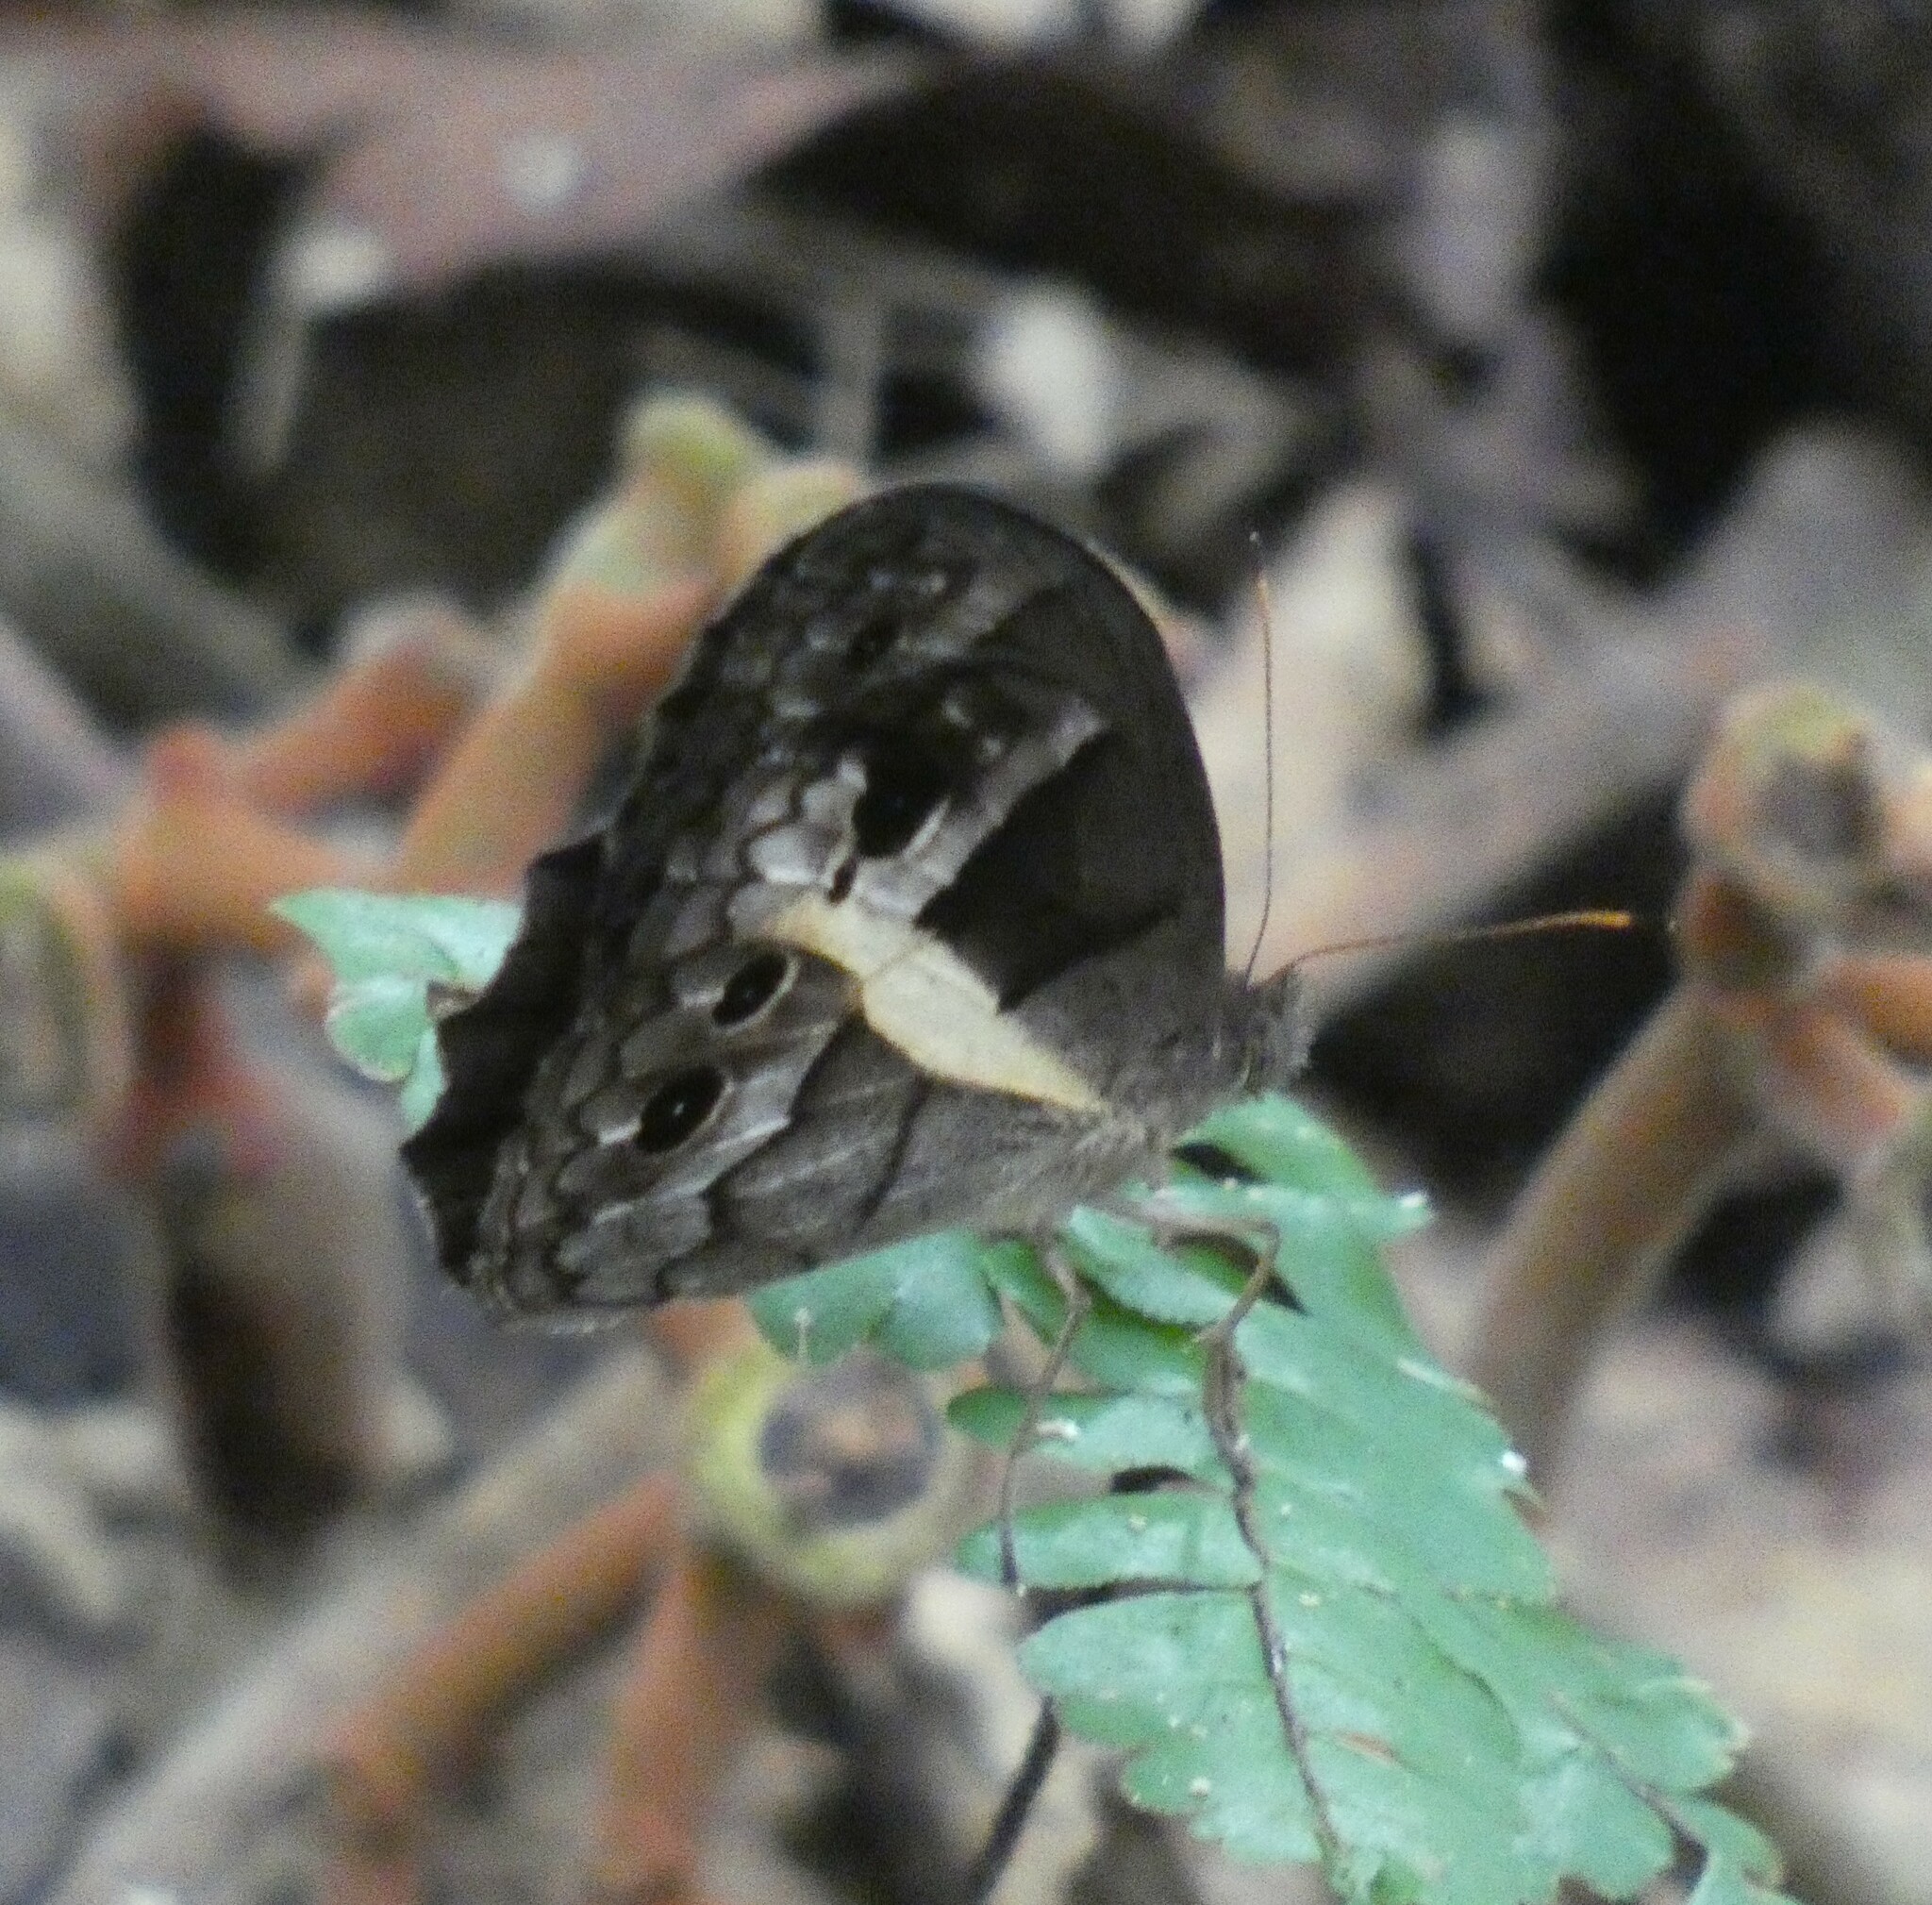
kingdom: Animalia
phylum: Arthropoda
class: Insecta
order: Lepidoptera
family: Nymphalidae
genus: Posttaygetis
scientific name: Posttaygetis penelea
